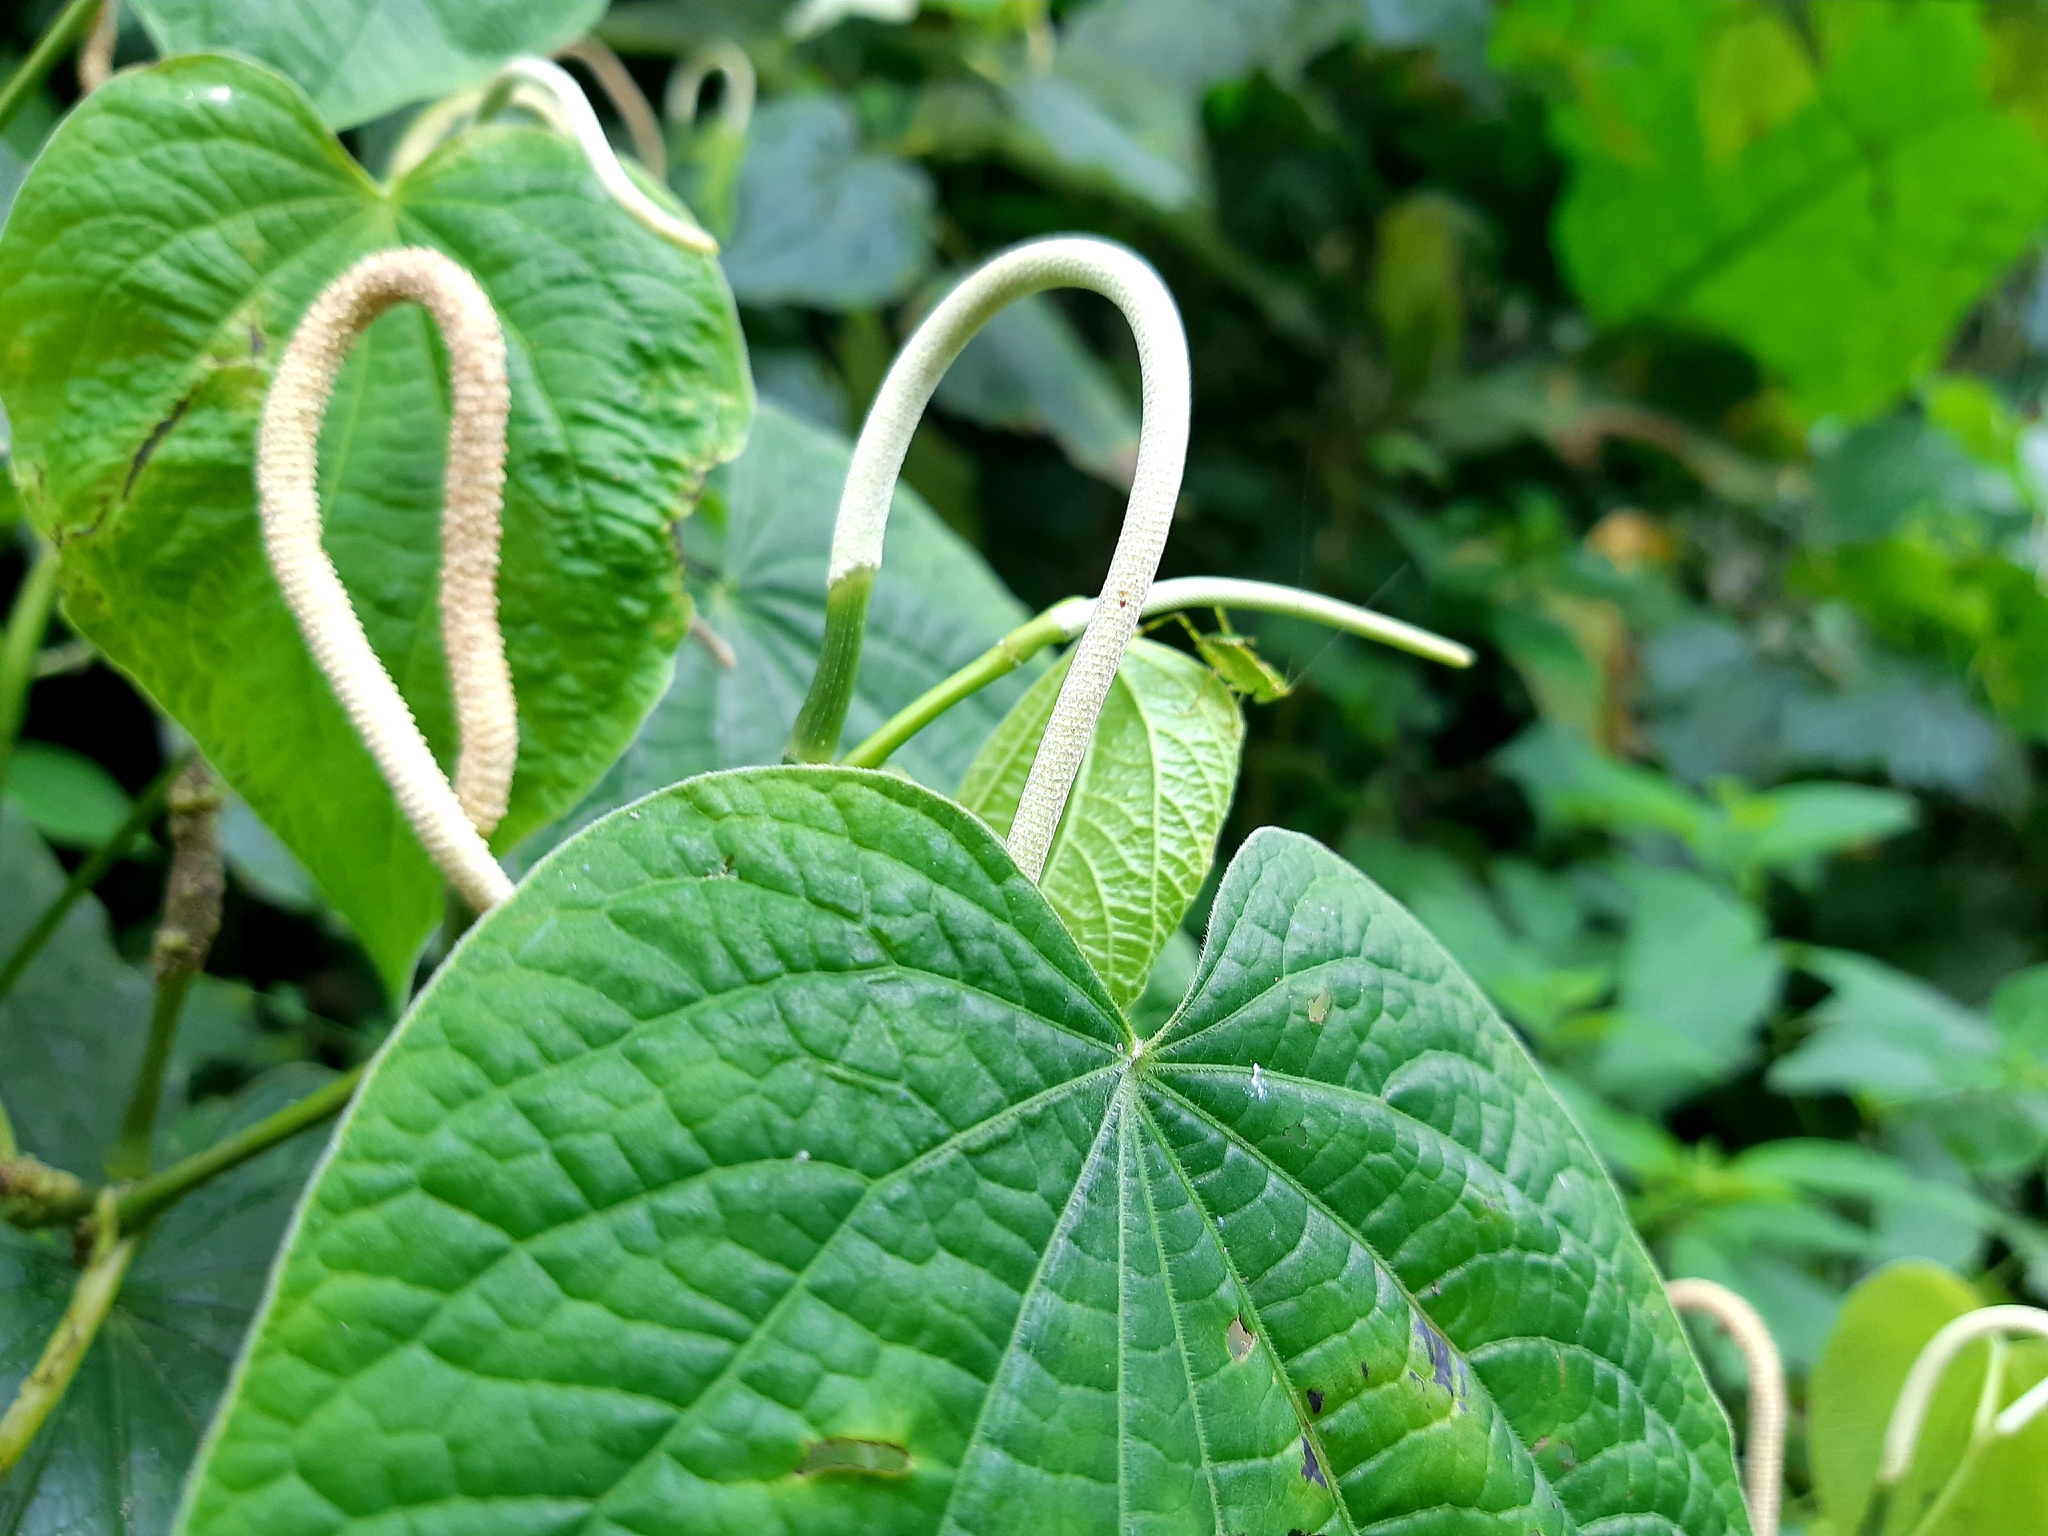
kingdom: Plantae
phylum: Tracheophyta
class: Magnoliopsida
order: Piperales
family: Piperaceae
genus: Piper
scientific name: Piper marginatum
